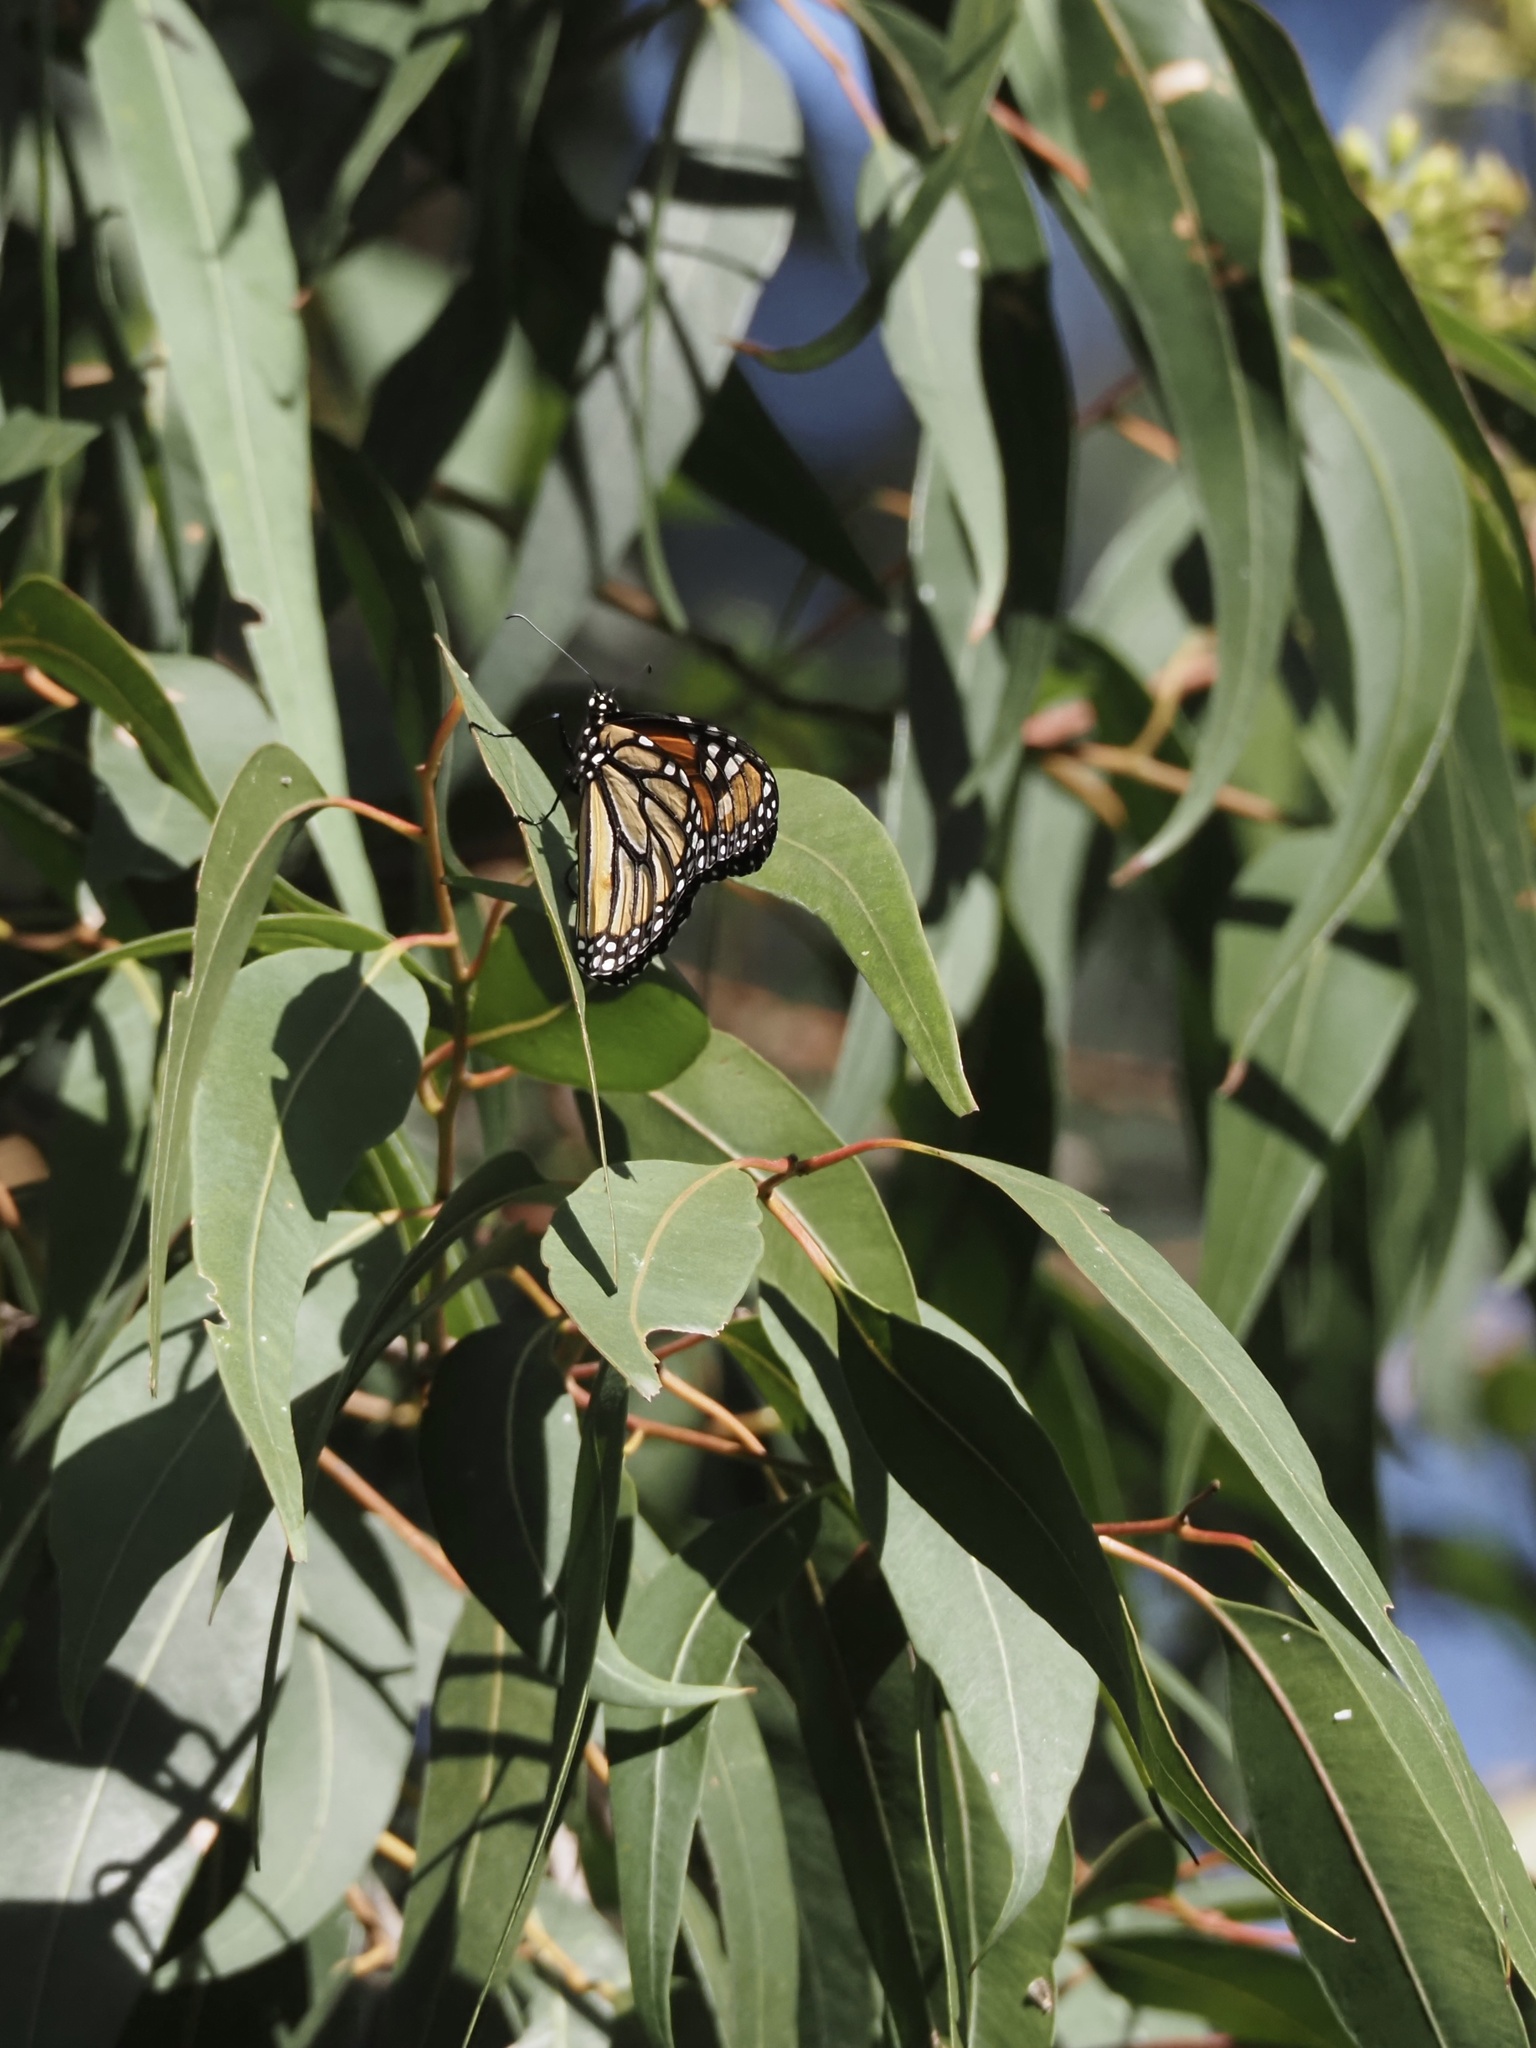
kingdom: Animalia
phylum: Arthropoda
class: Insecta
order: Lepidoptera
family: Nymphalidae
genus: Danaus
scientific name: Danaus plexippus
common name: Monarch
